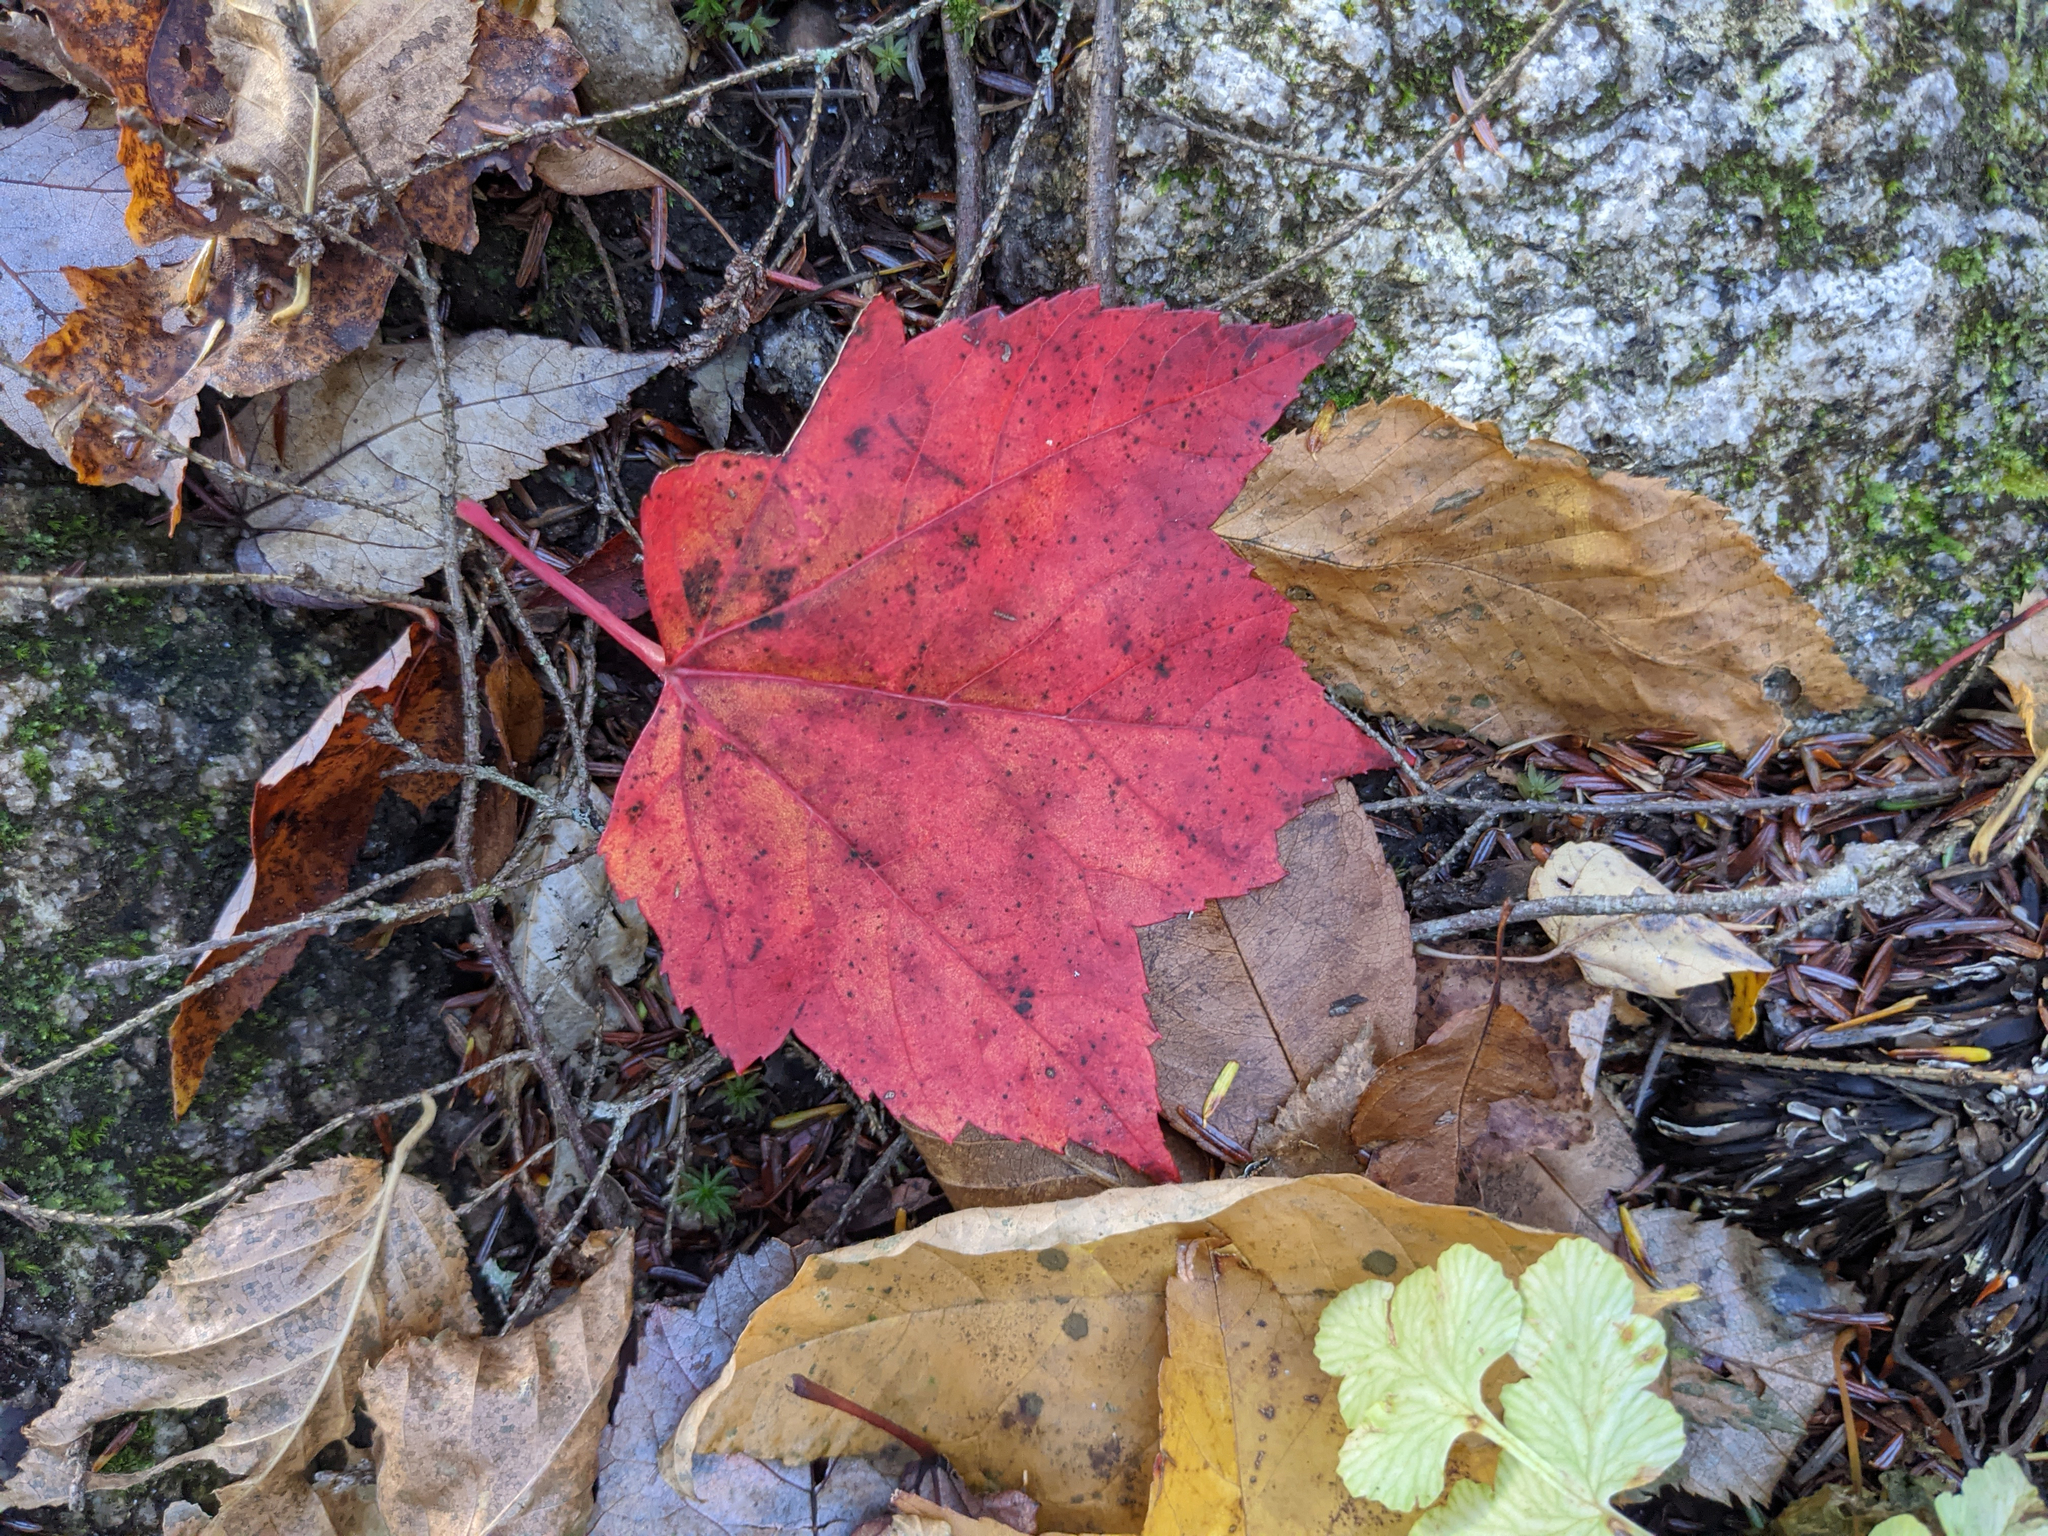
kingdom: Plantae
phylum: Tracheophyta
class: Magnoliopsida
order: Sapindales
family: Sapindaceae
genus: Acer
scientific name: Acer rubrum
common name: Red maple
